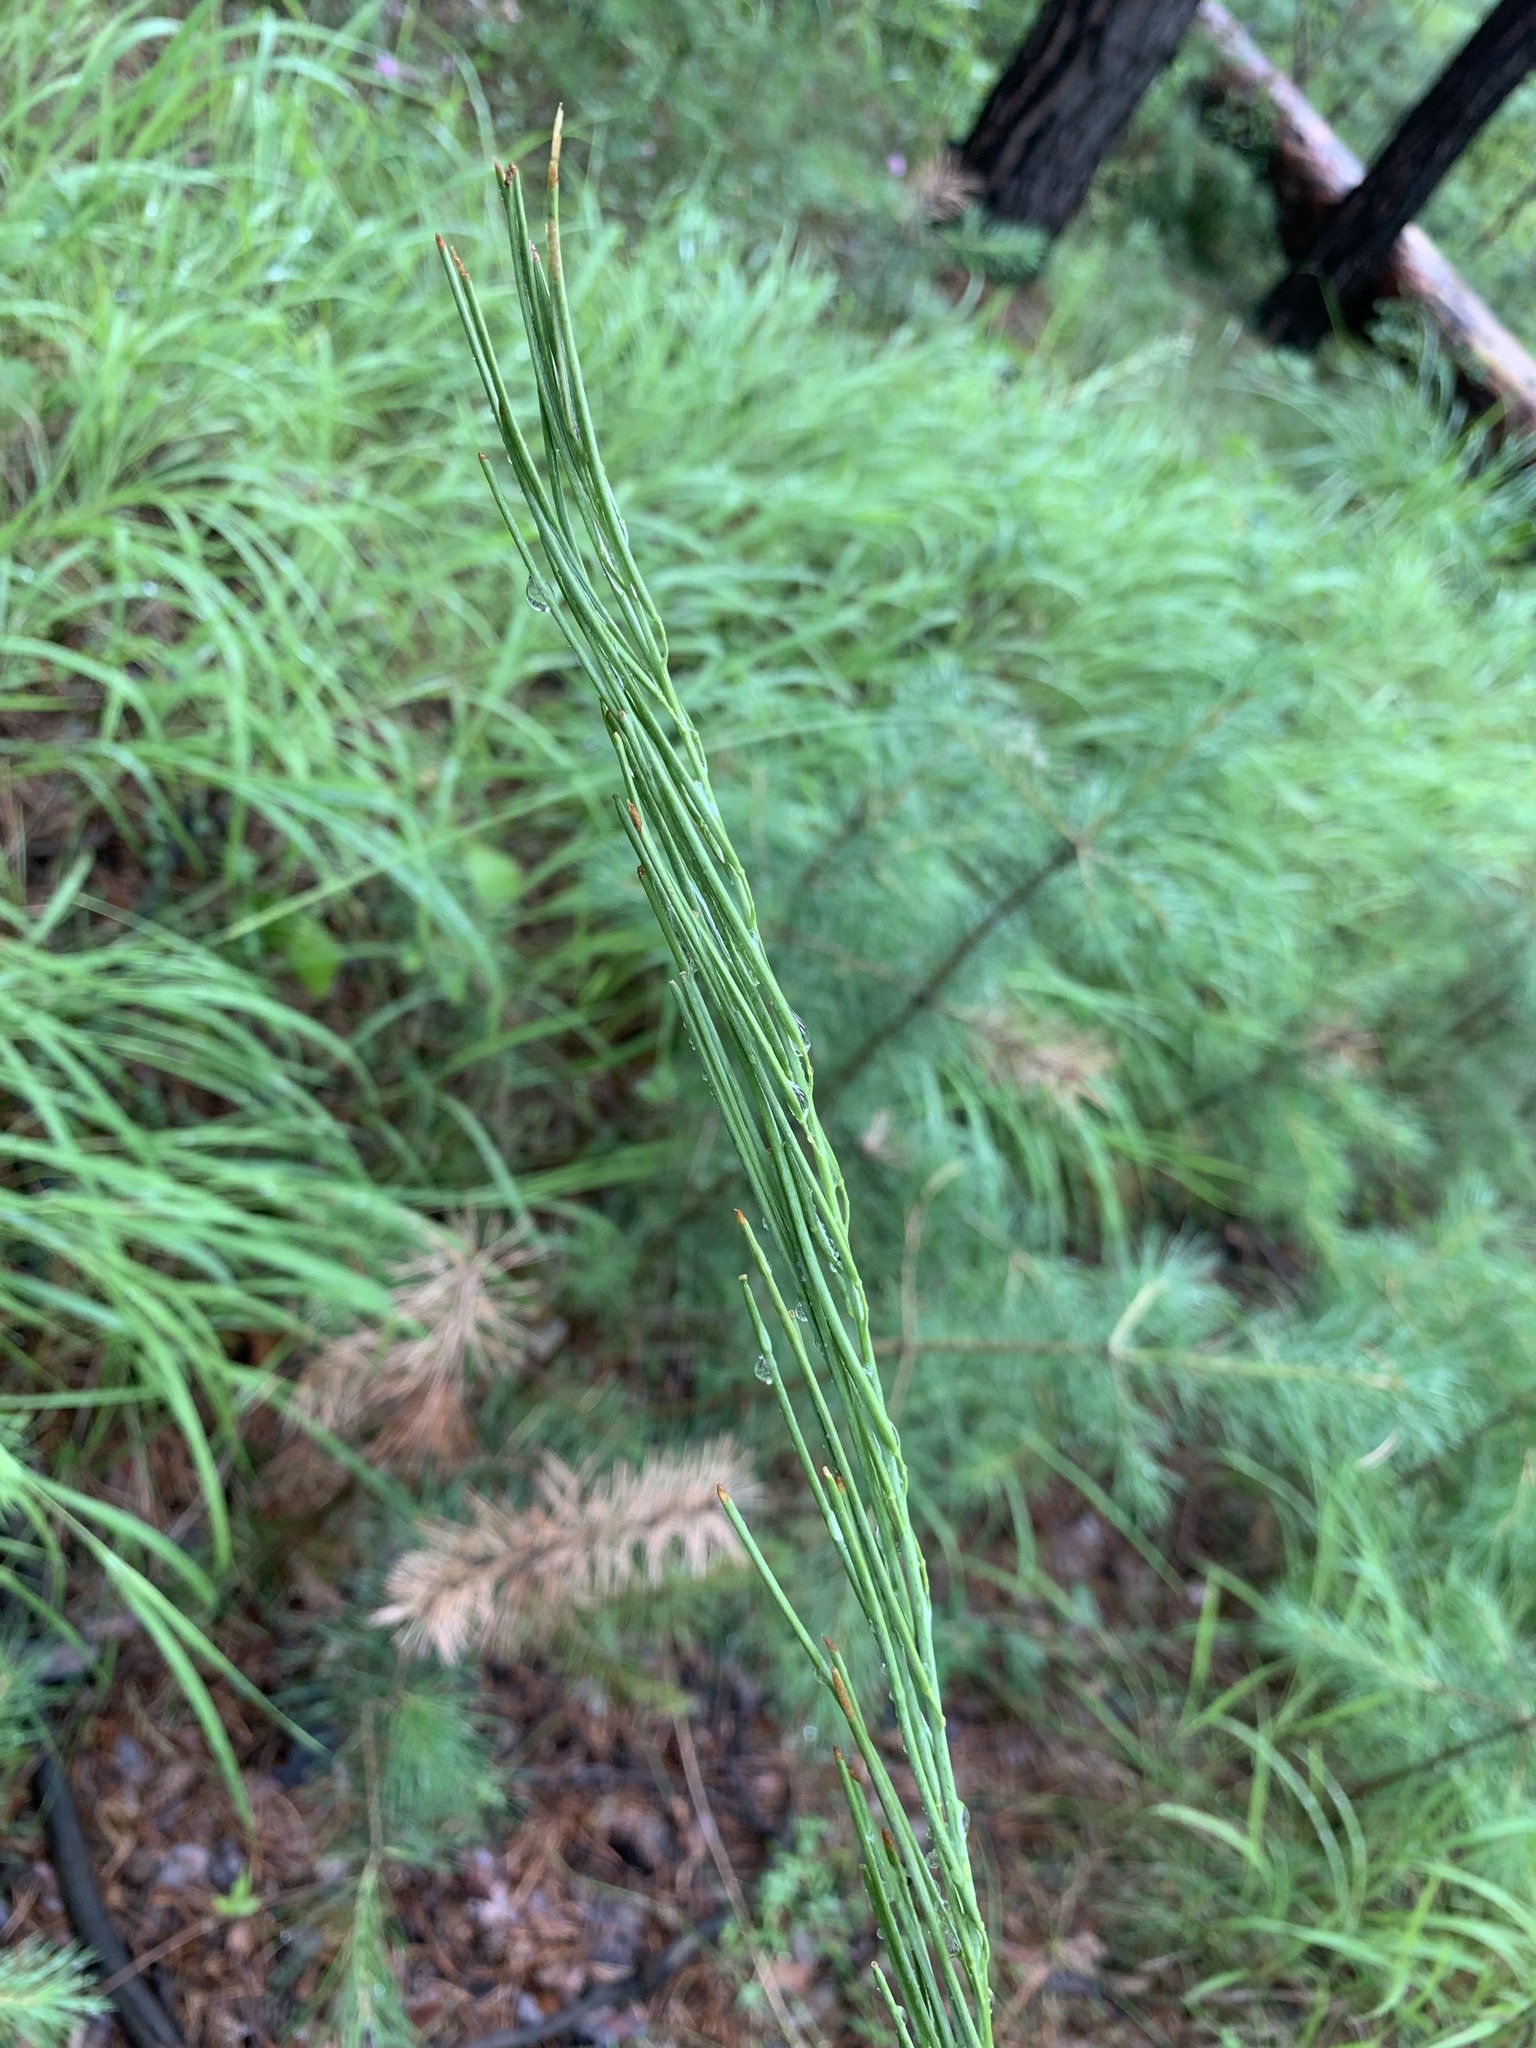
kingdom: Plantae
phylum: Tracheophyta
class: Magnoliopsida
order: Brassicales
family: Brassicaceae
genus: Turritis
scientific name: Turritis glabra
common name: Tower rockcress
